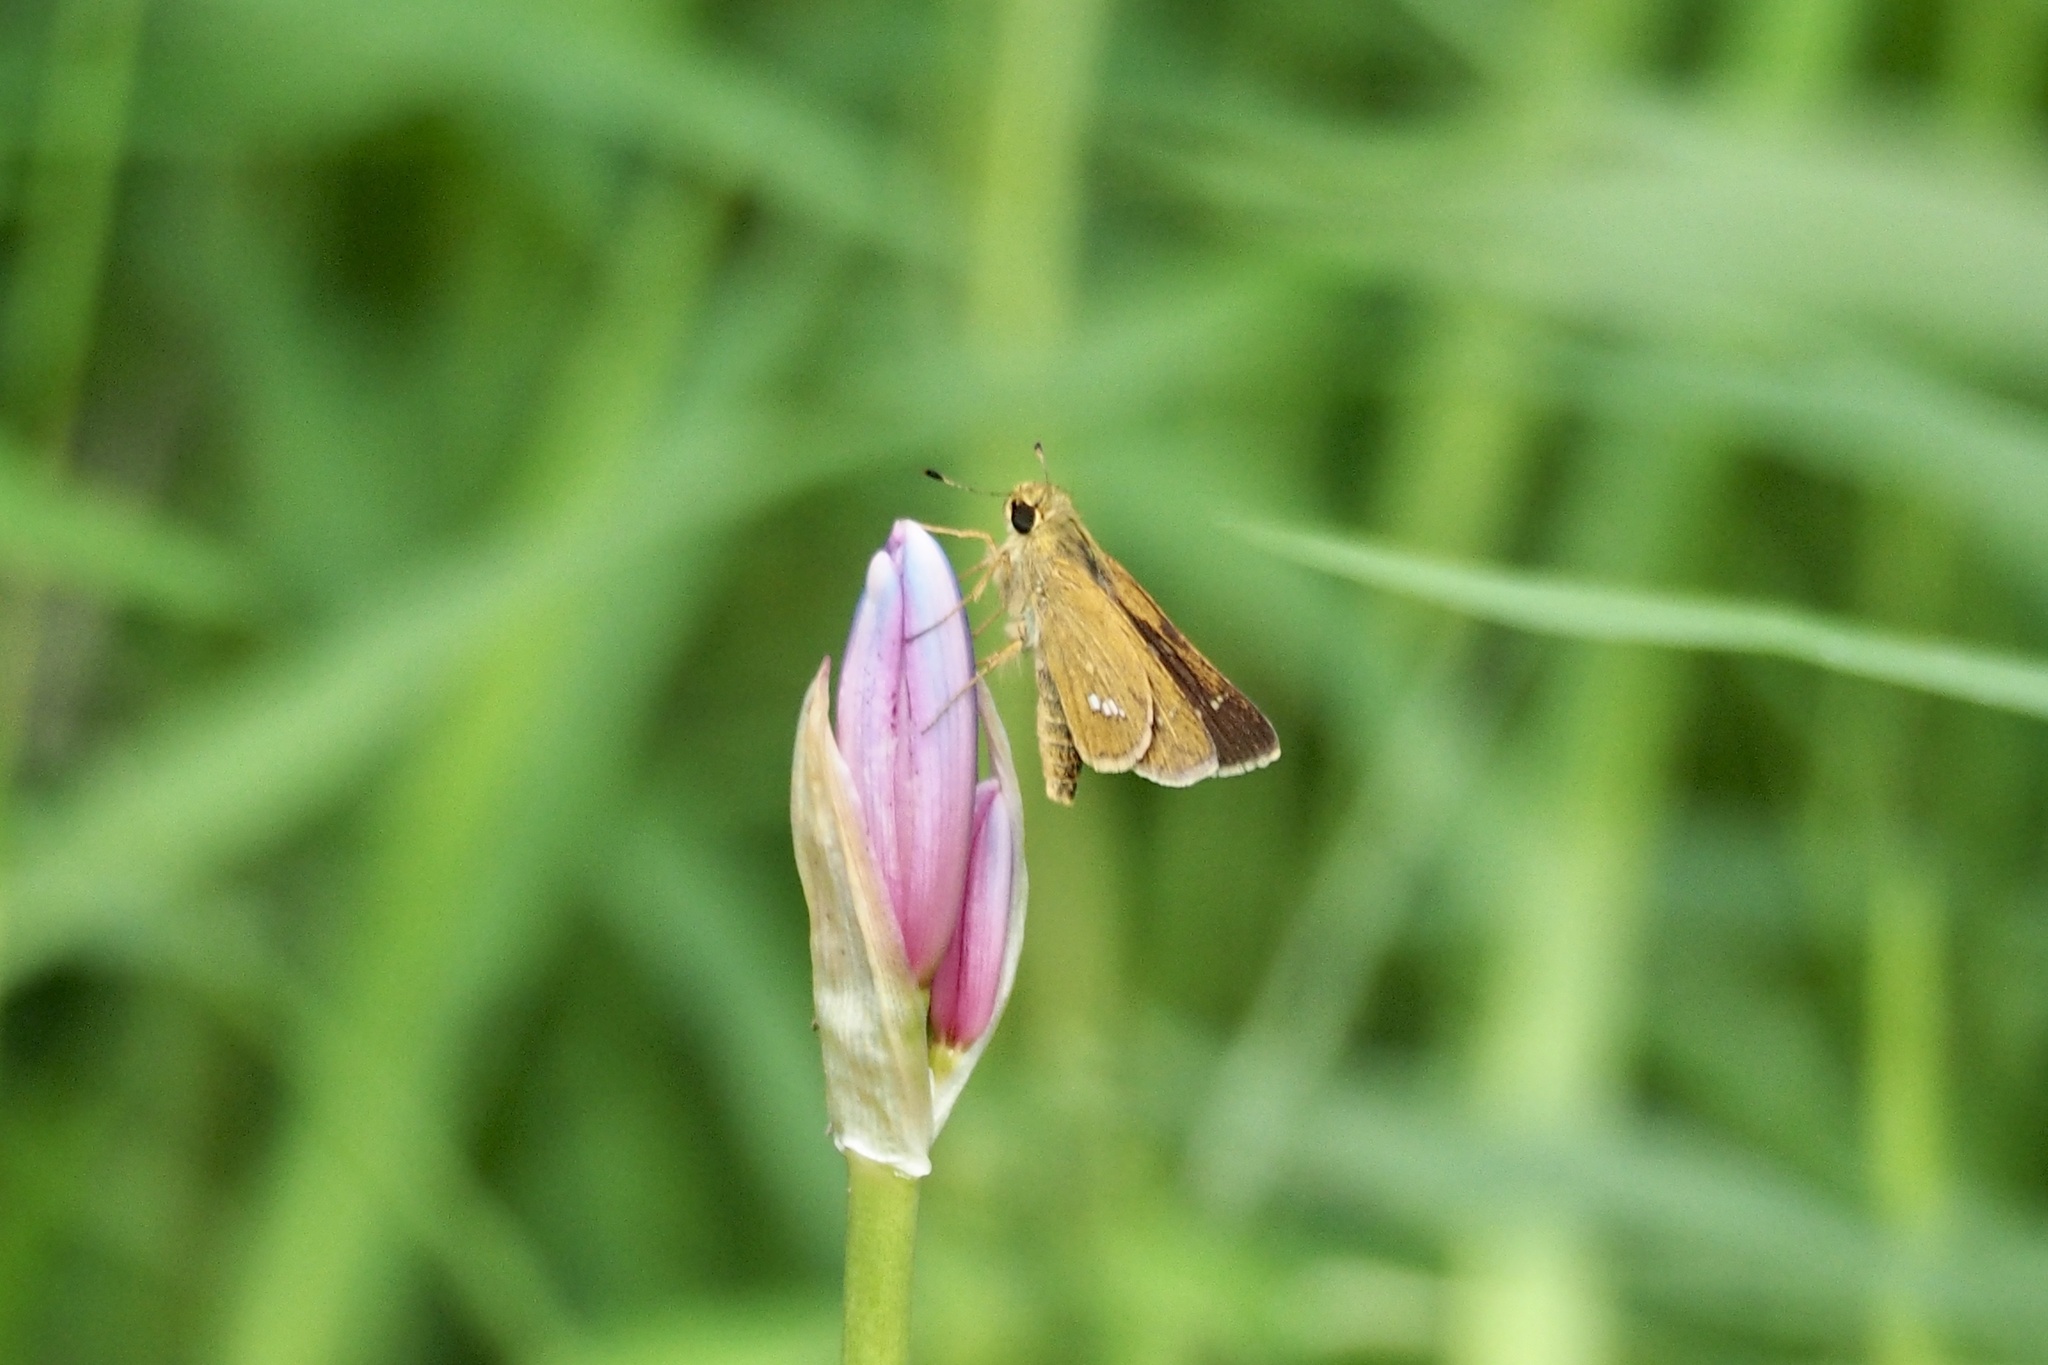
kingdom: Animalia
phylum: Arthropoda
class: Insecta
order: Lepidoptera
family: Hesperiidae
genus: Parnara
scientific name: Parnara guttatus
